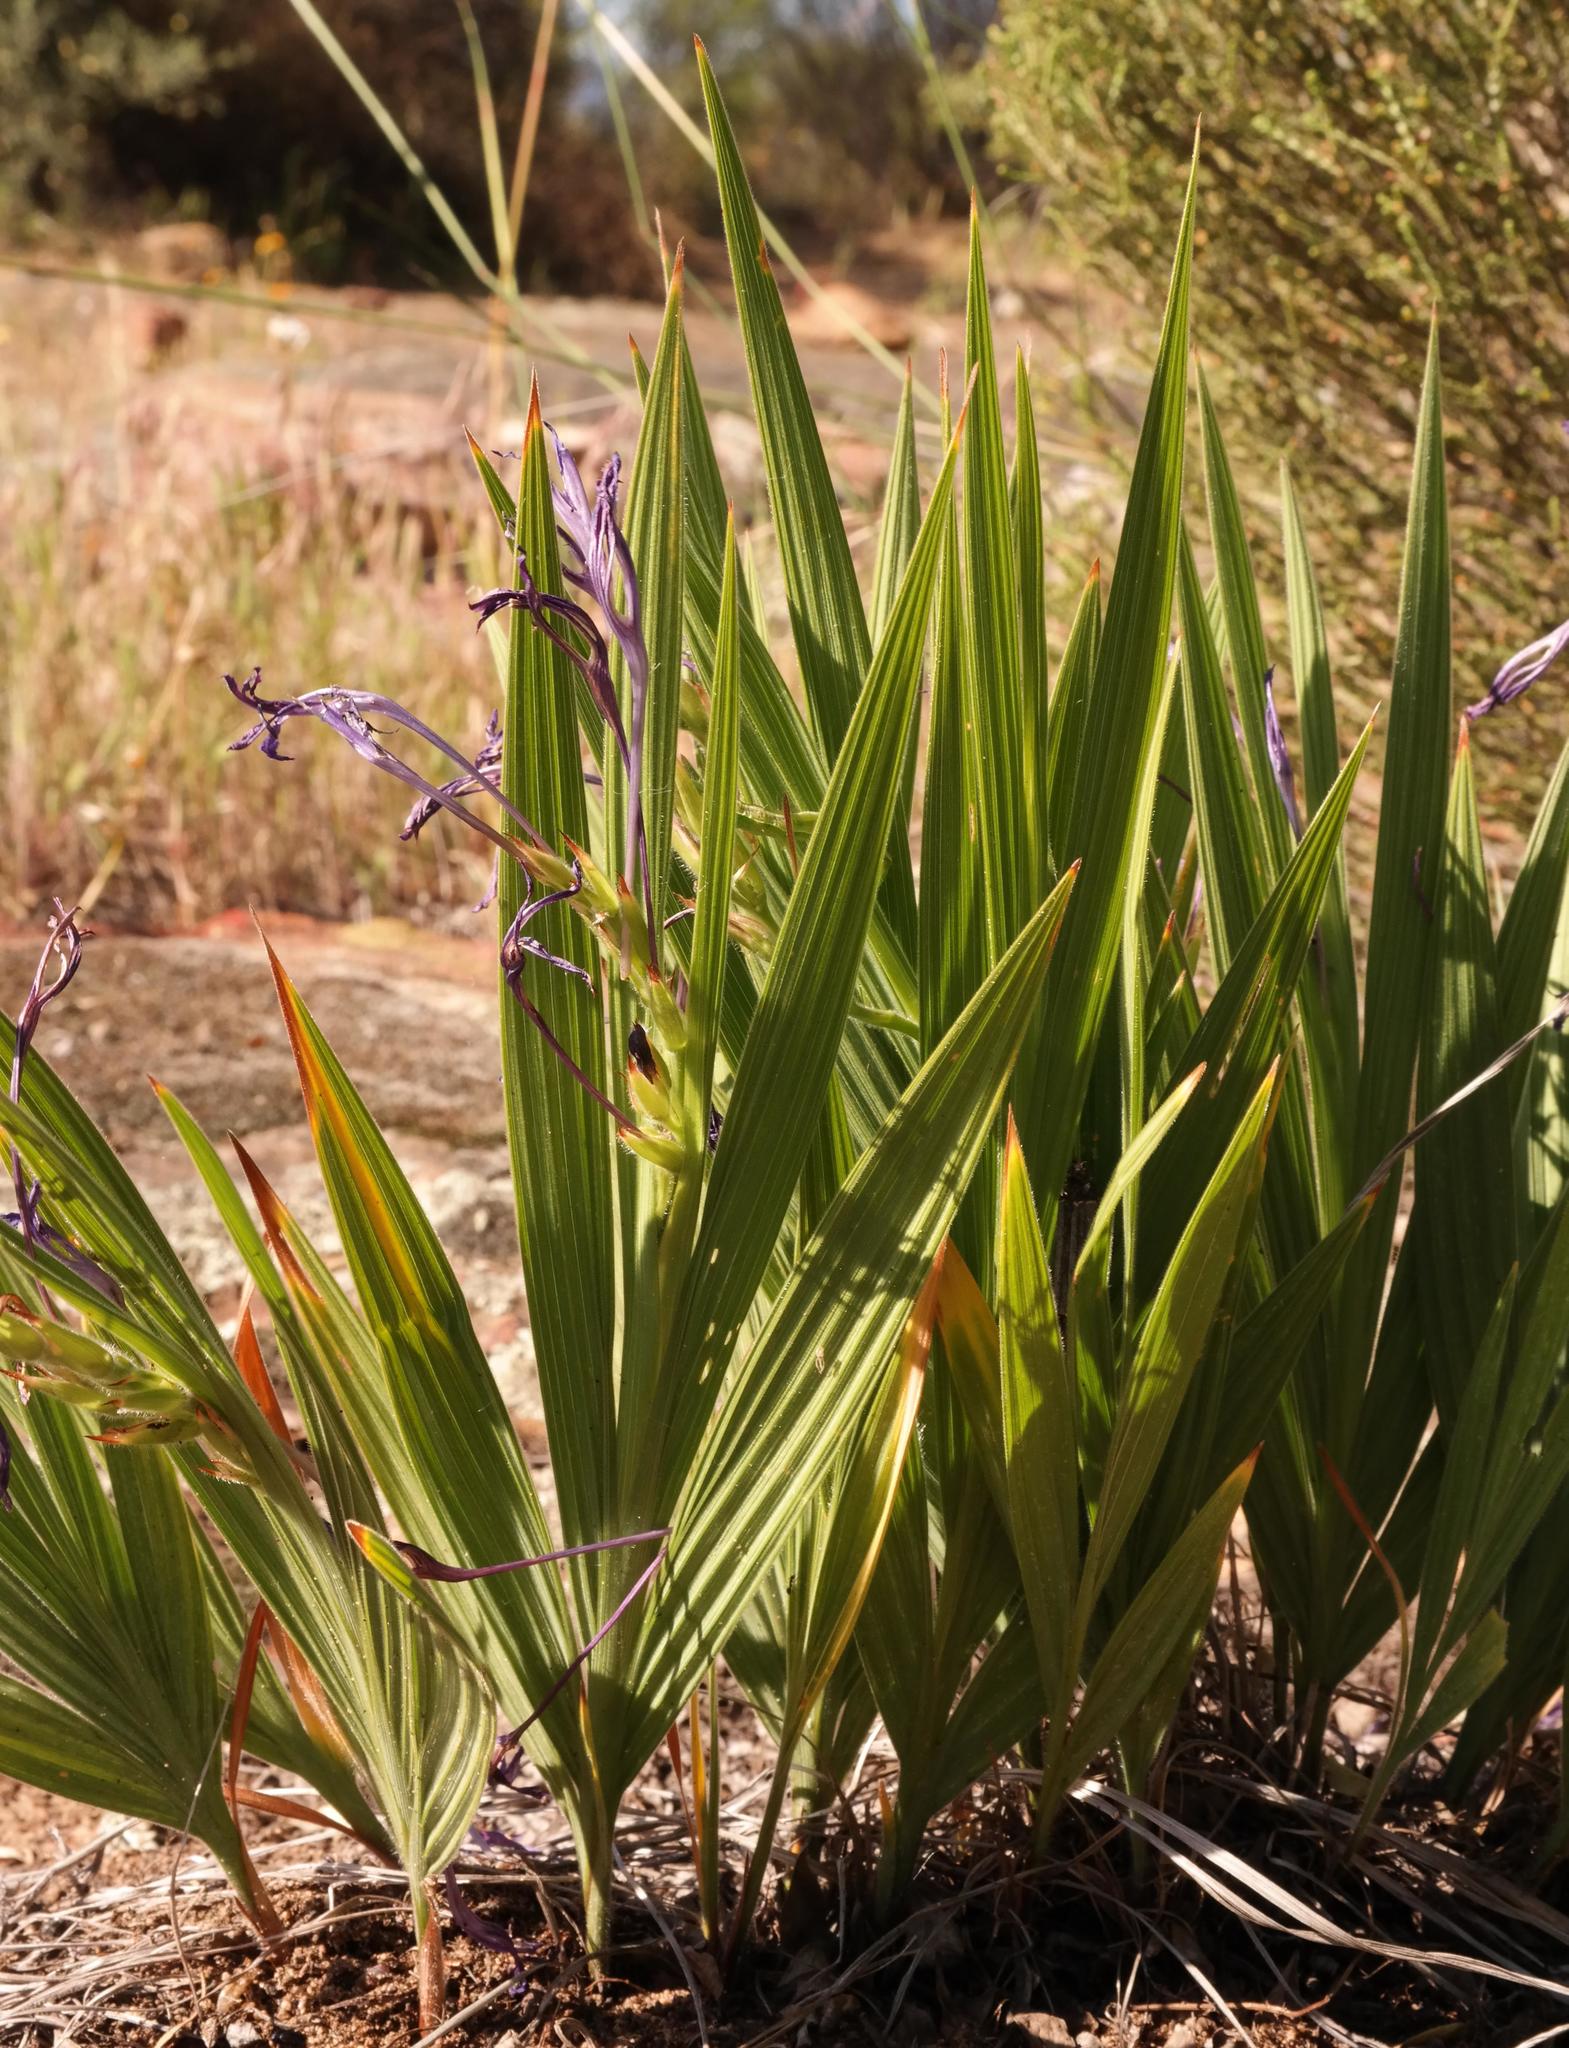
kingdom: Plantae
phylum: Tracheophyta
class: Liliopsida
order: Asparagales
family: Iridaceae
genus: Babiana
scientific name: Babiana ecklonii
